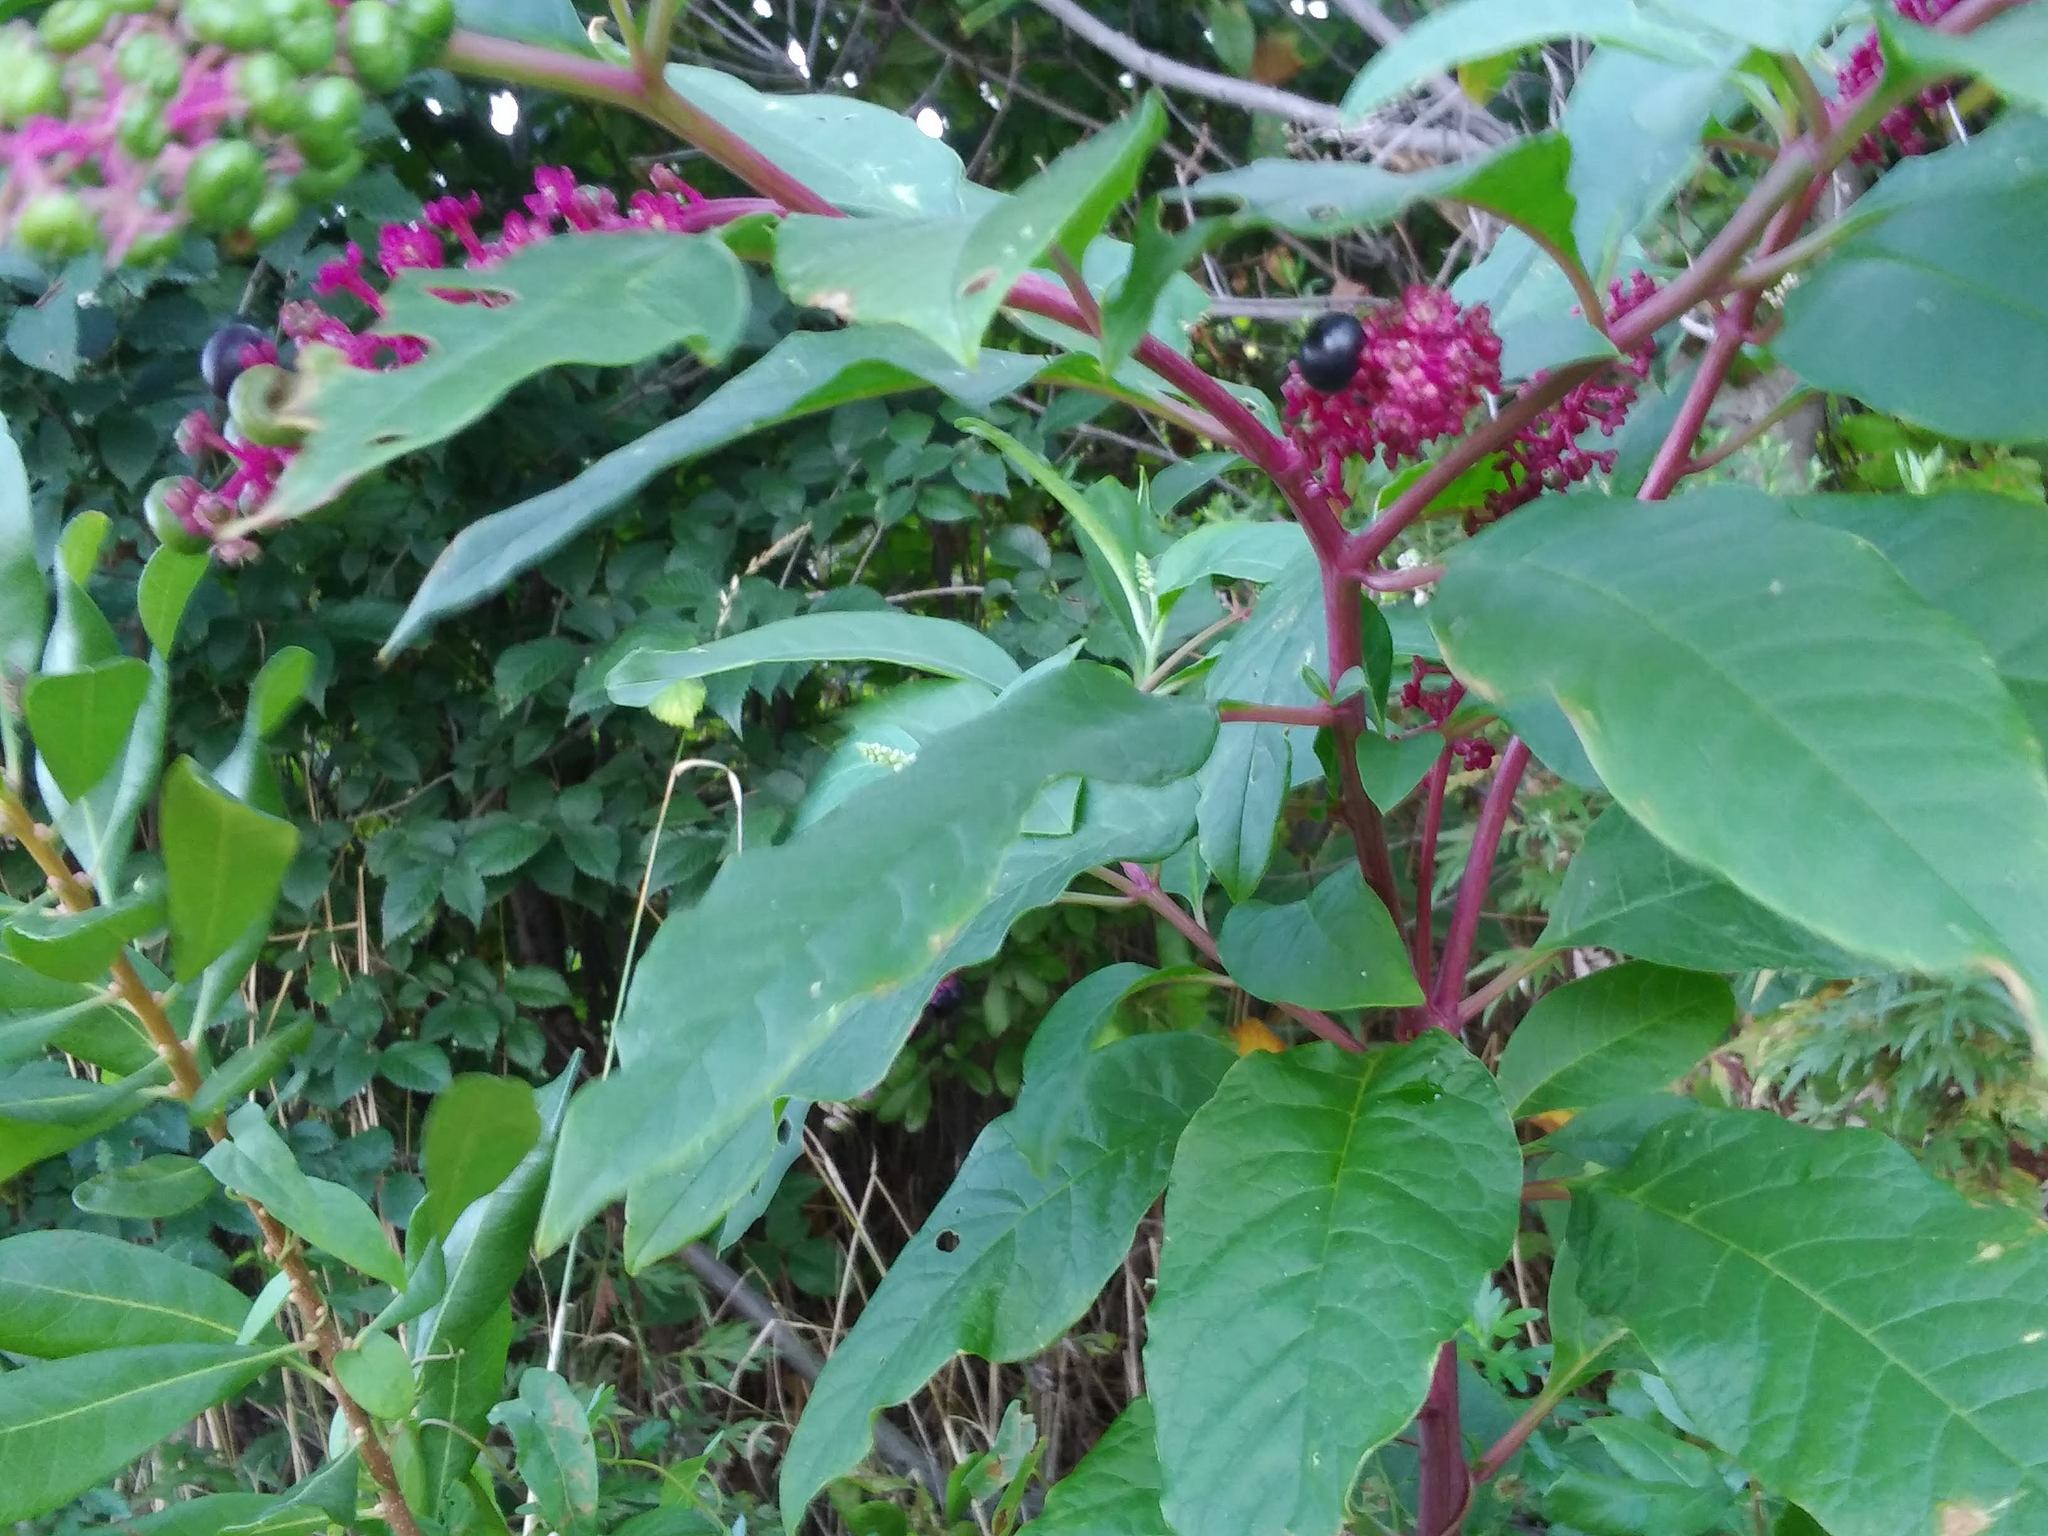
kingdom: Plantae
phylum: Tracheophyta
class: Magnoliopsida
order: Caryophyllales
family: Phytolaccaceae
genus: Phytolacca
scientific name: Phytolacca americana
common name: American pokeweed
